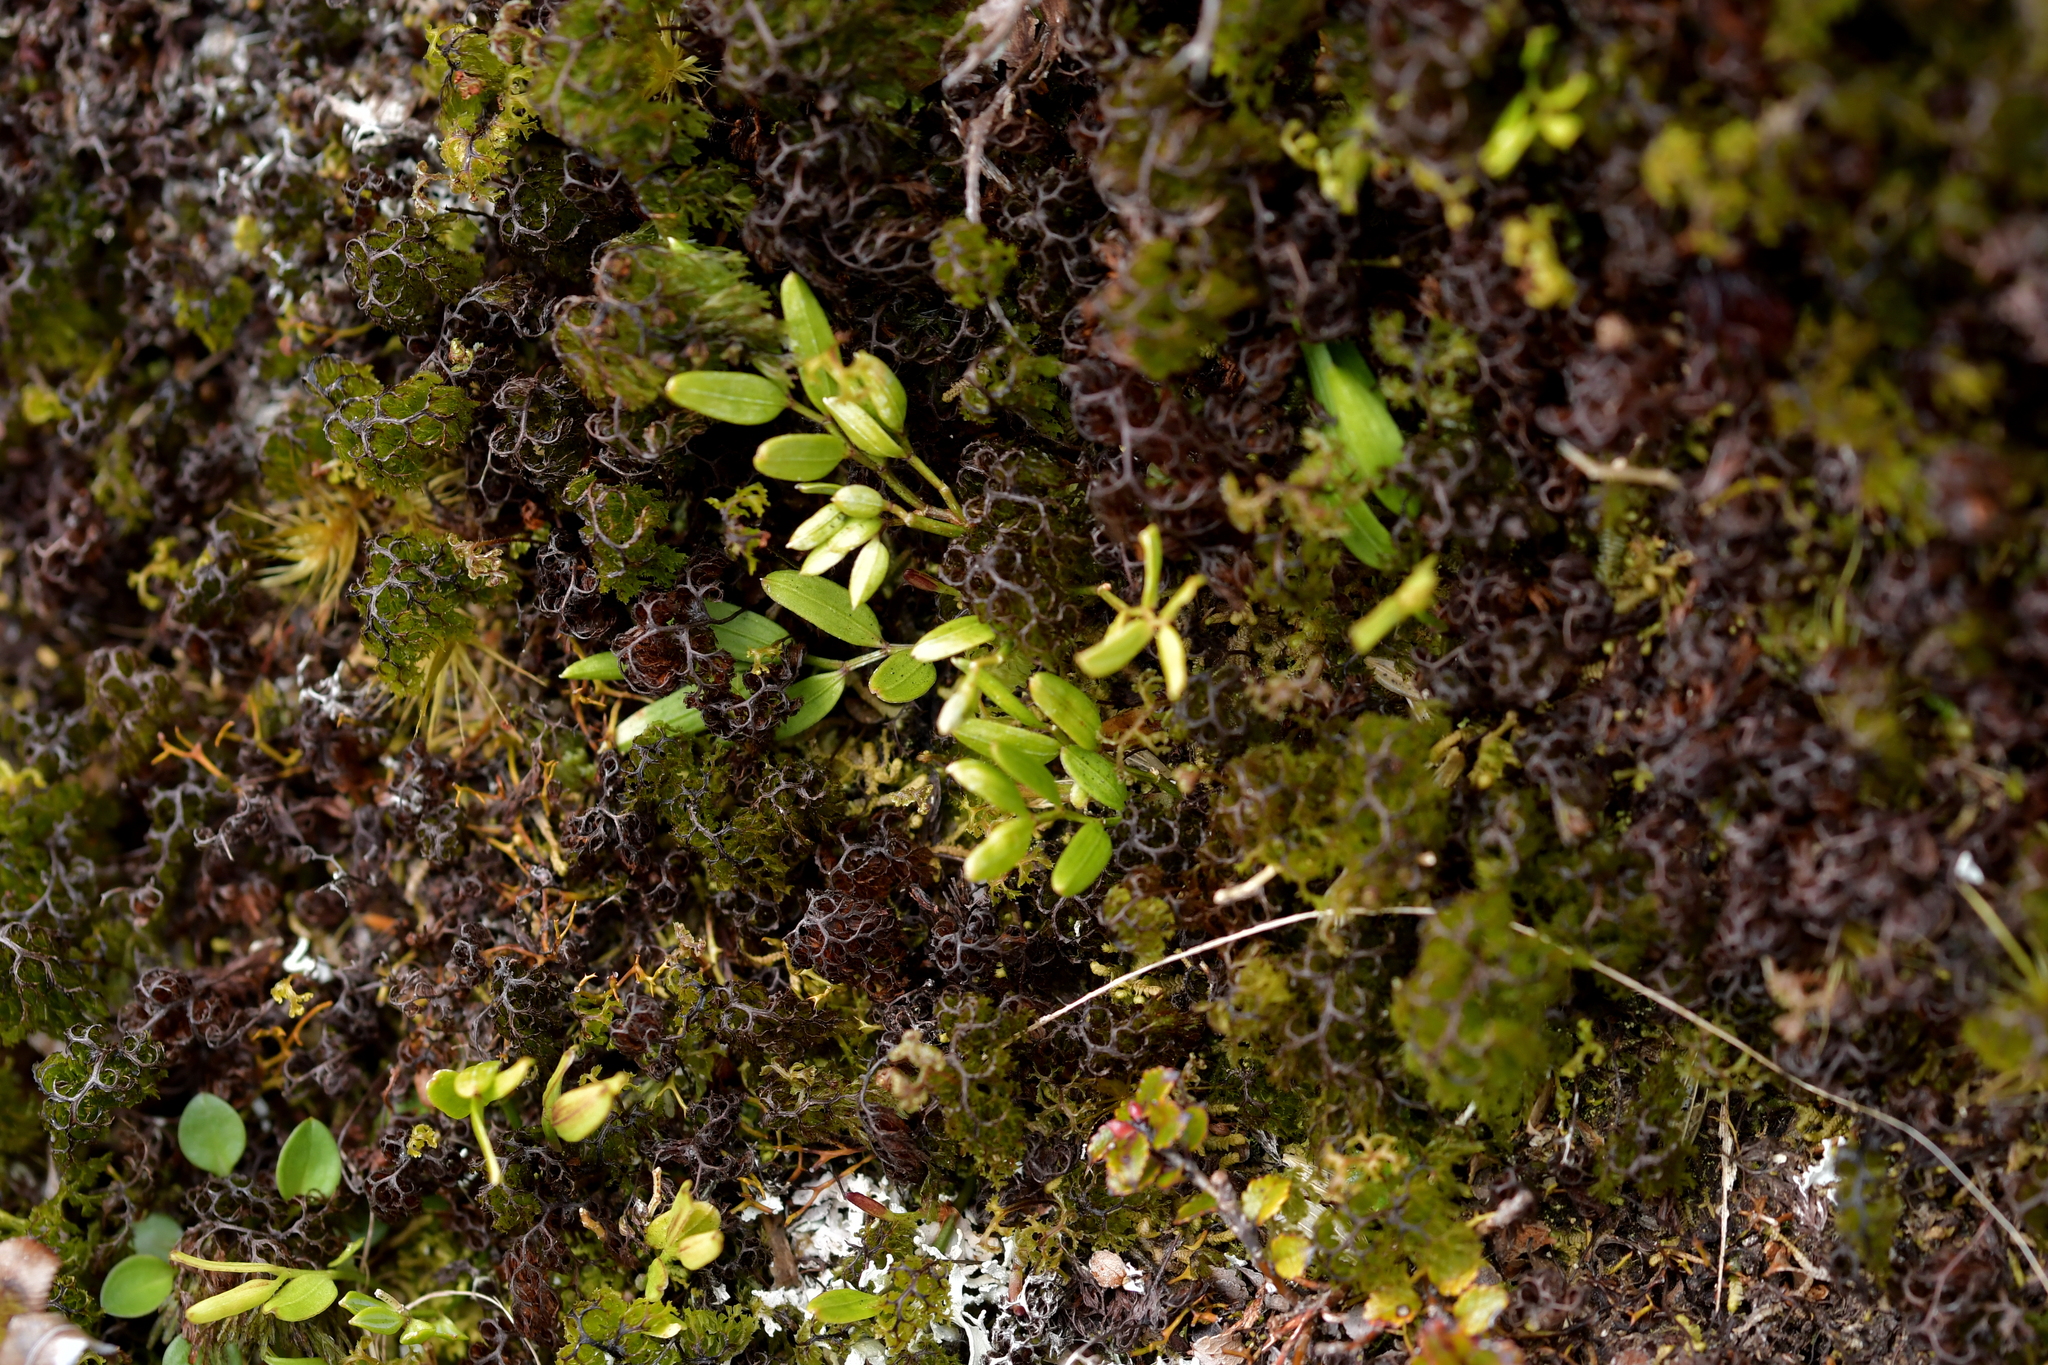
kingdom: Plantae
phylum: Tracheophyta
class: Liliopsida
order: Liliales
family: Alstroemeriaceae
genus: Luzuriaga
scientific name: Luzuriaga parviflora
